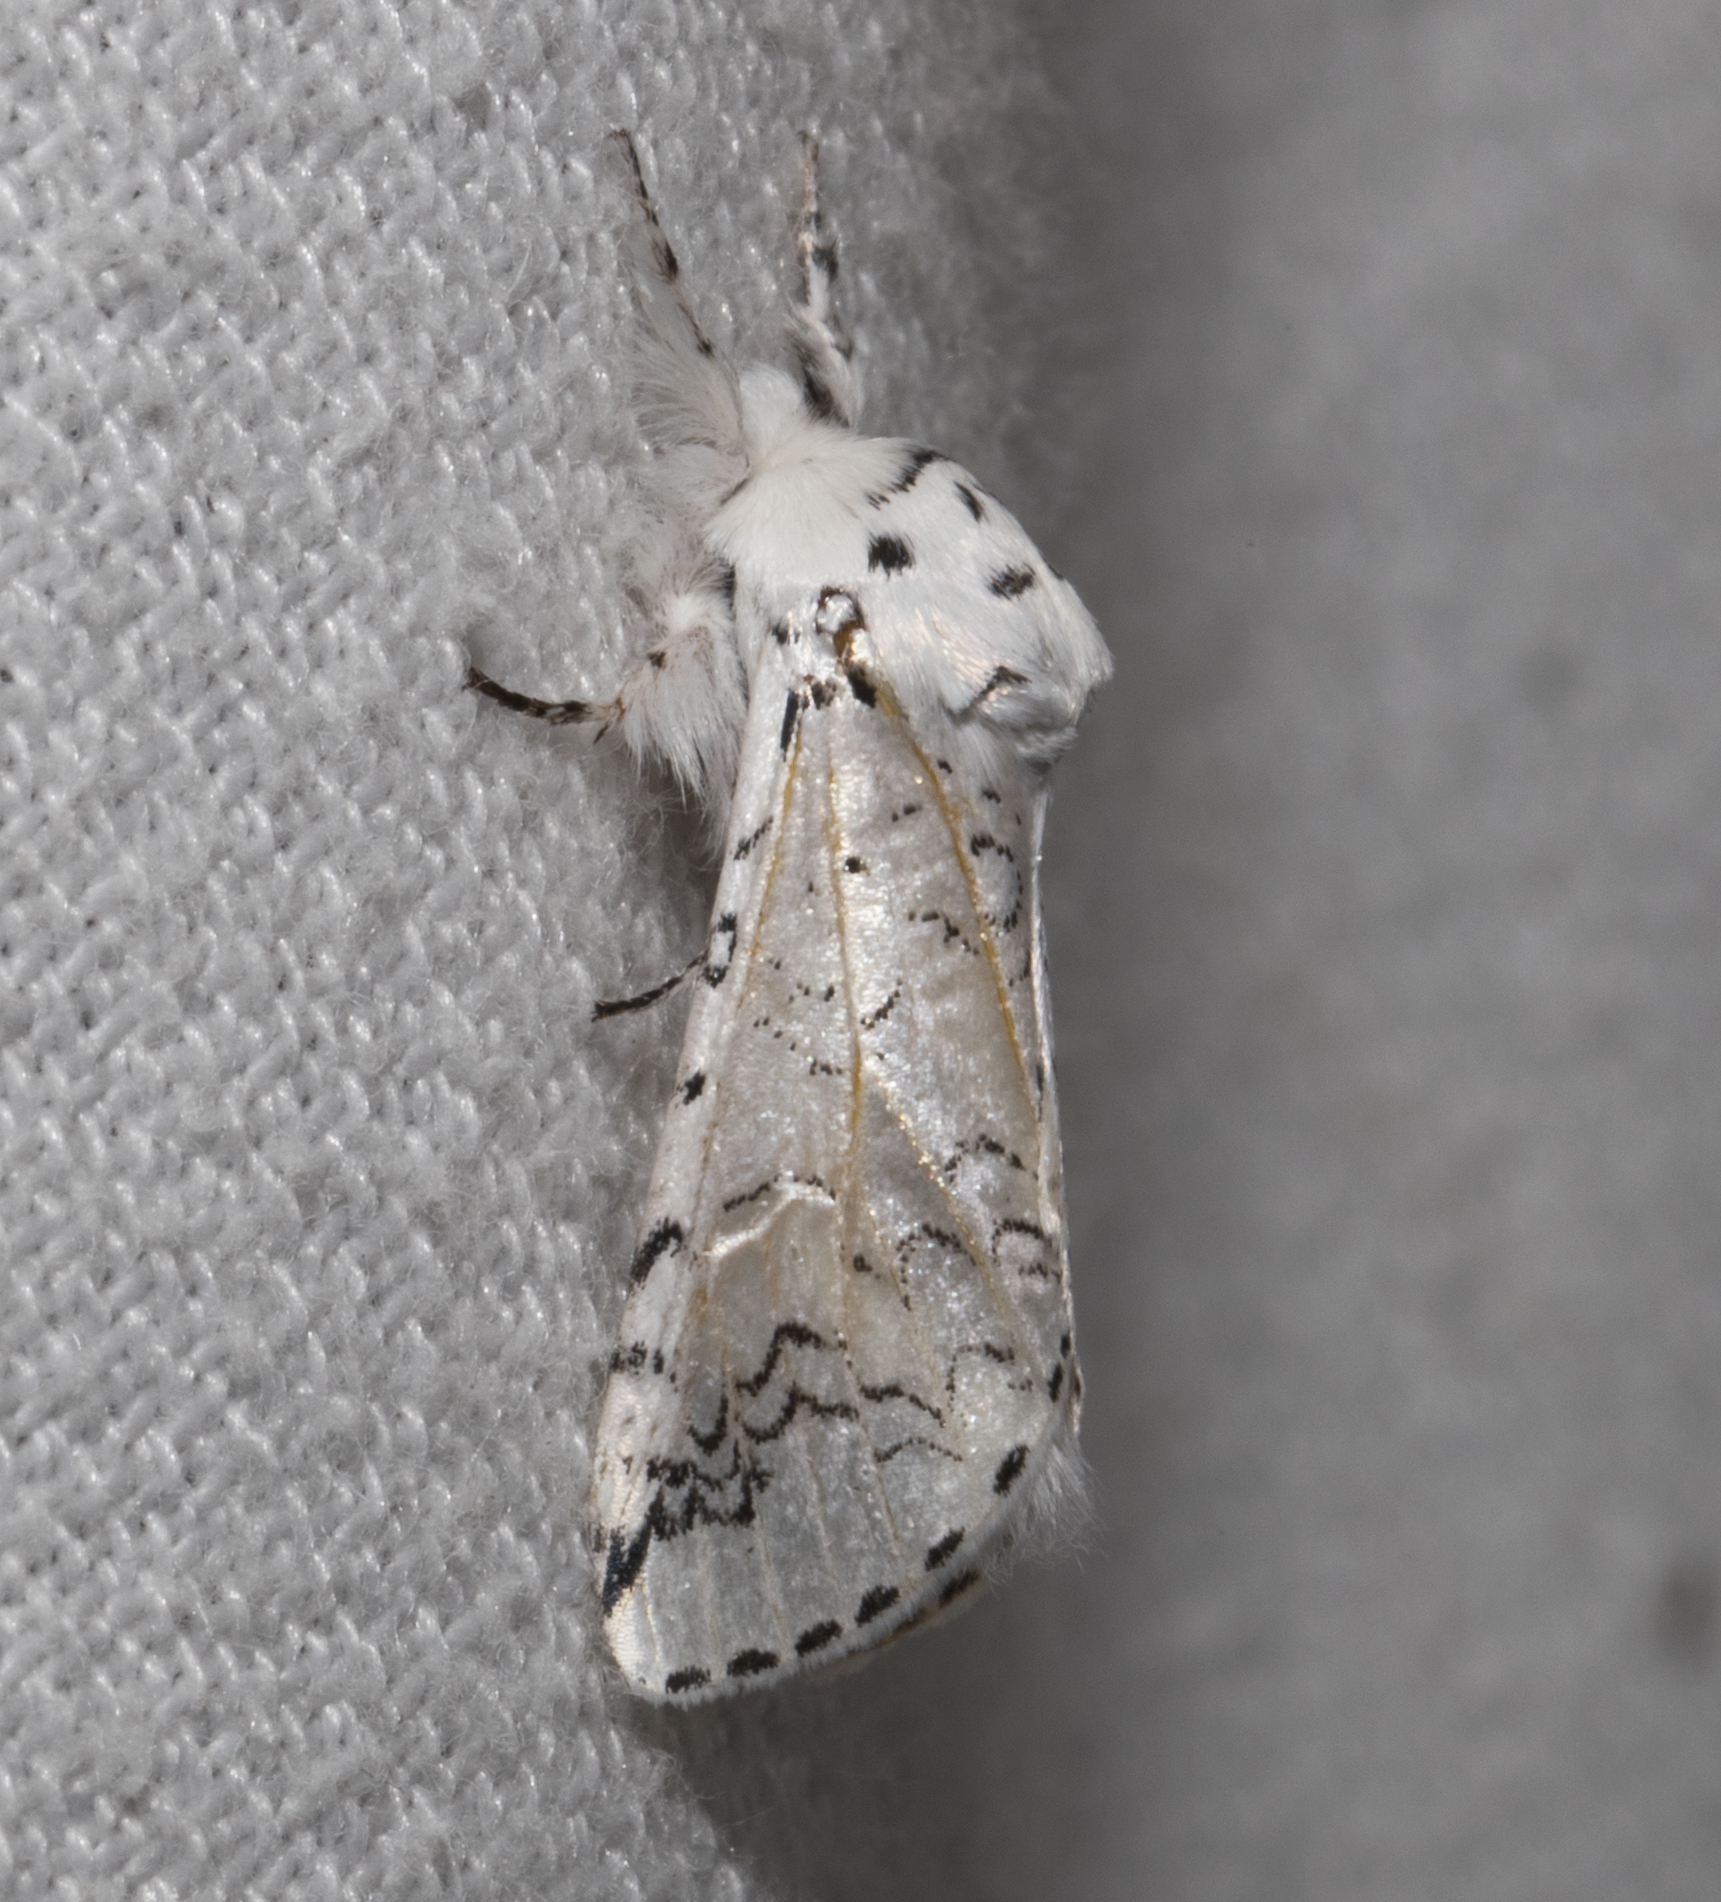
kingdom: Animalia
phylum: Arthropoda
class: Insecta
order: Lepidoptera
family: Notodontidae
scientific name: Notodontidae
